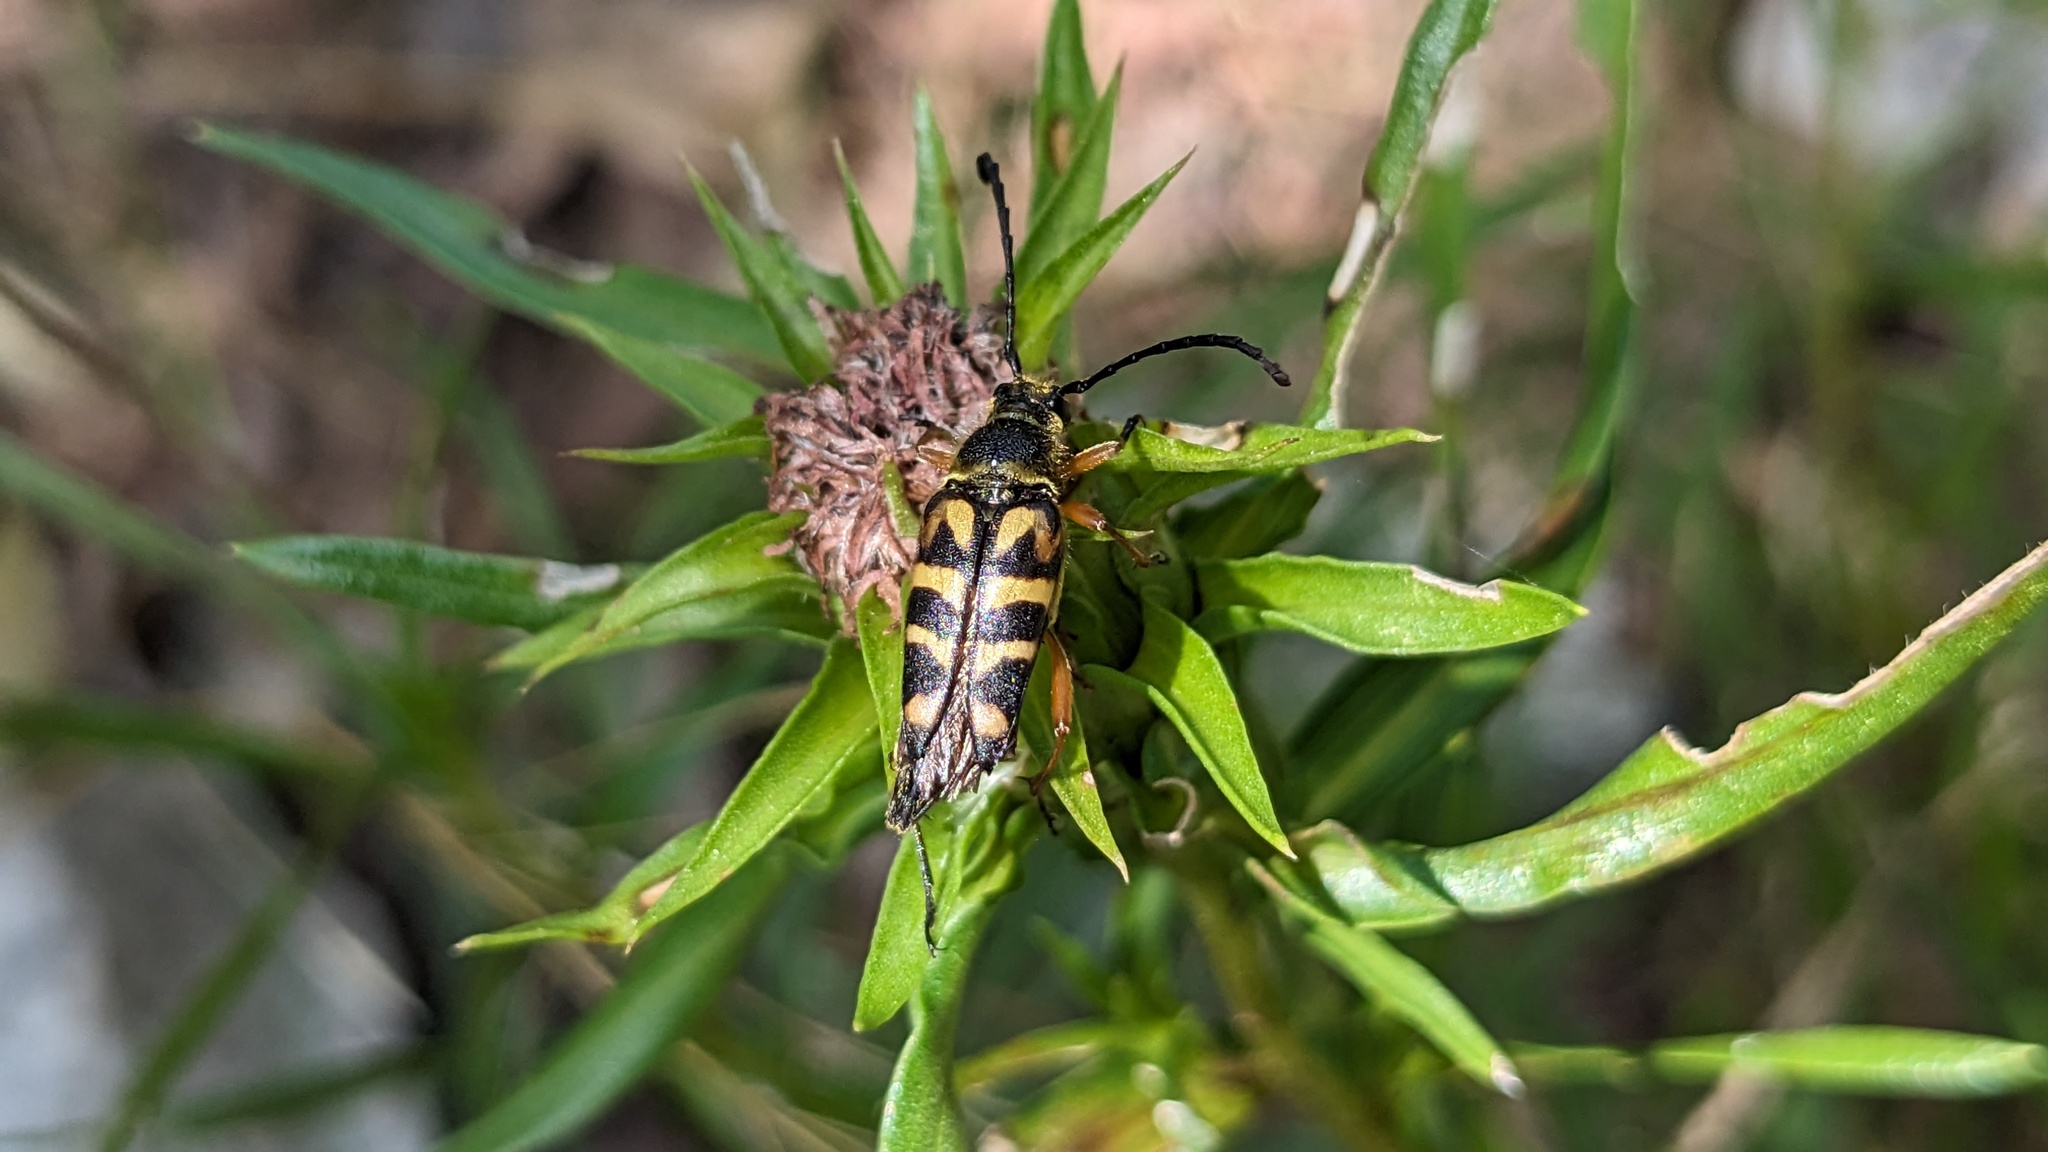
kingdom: Animalia
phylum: Arthropoda
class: Insecta
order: Coleoptera
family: Cerambycidae
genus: Typocerus
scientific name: Typocerus zebra
